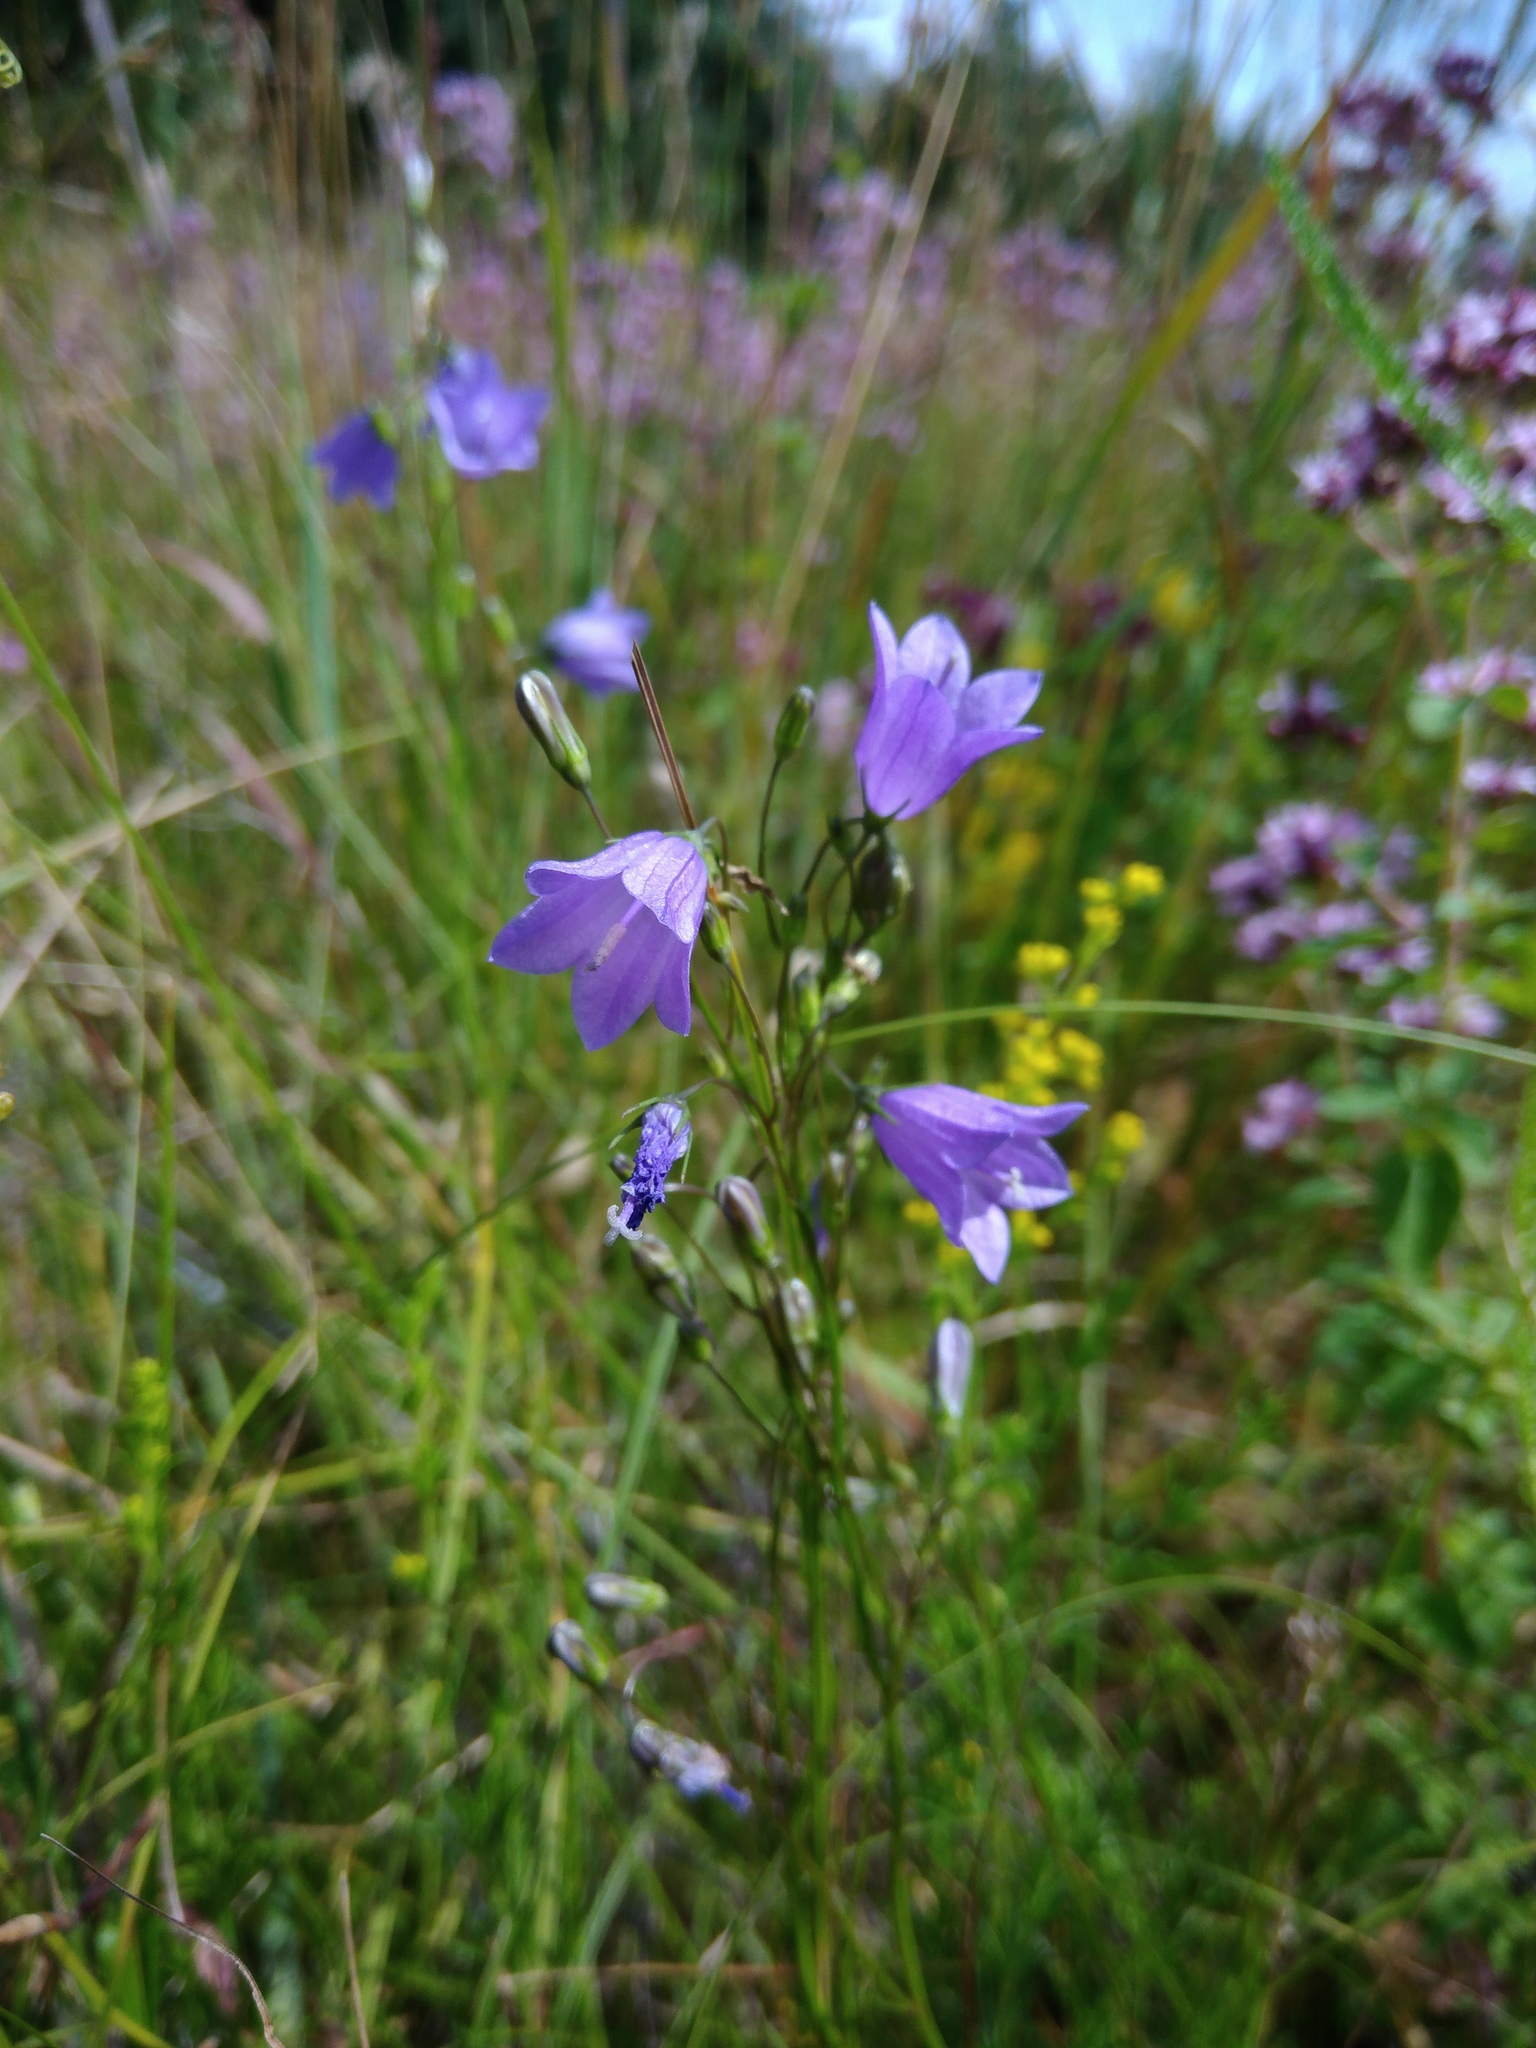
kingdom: Plantae
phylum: Tracheophyta
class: Magnoliopsida
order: Asterales
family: Campanulaceae
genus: Campanula
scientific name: Campanula rotundifolia
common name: Harebell
